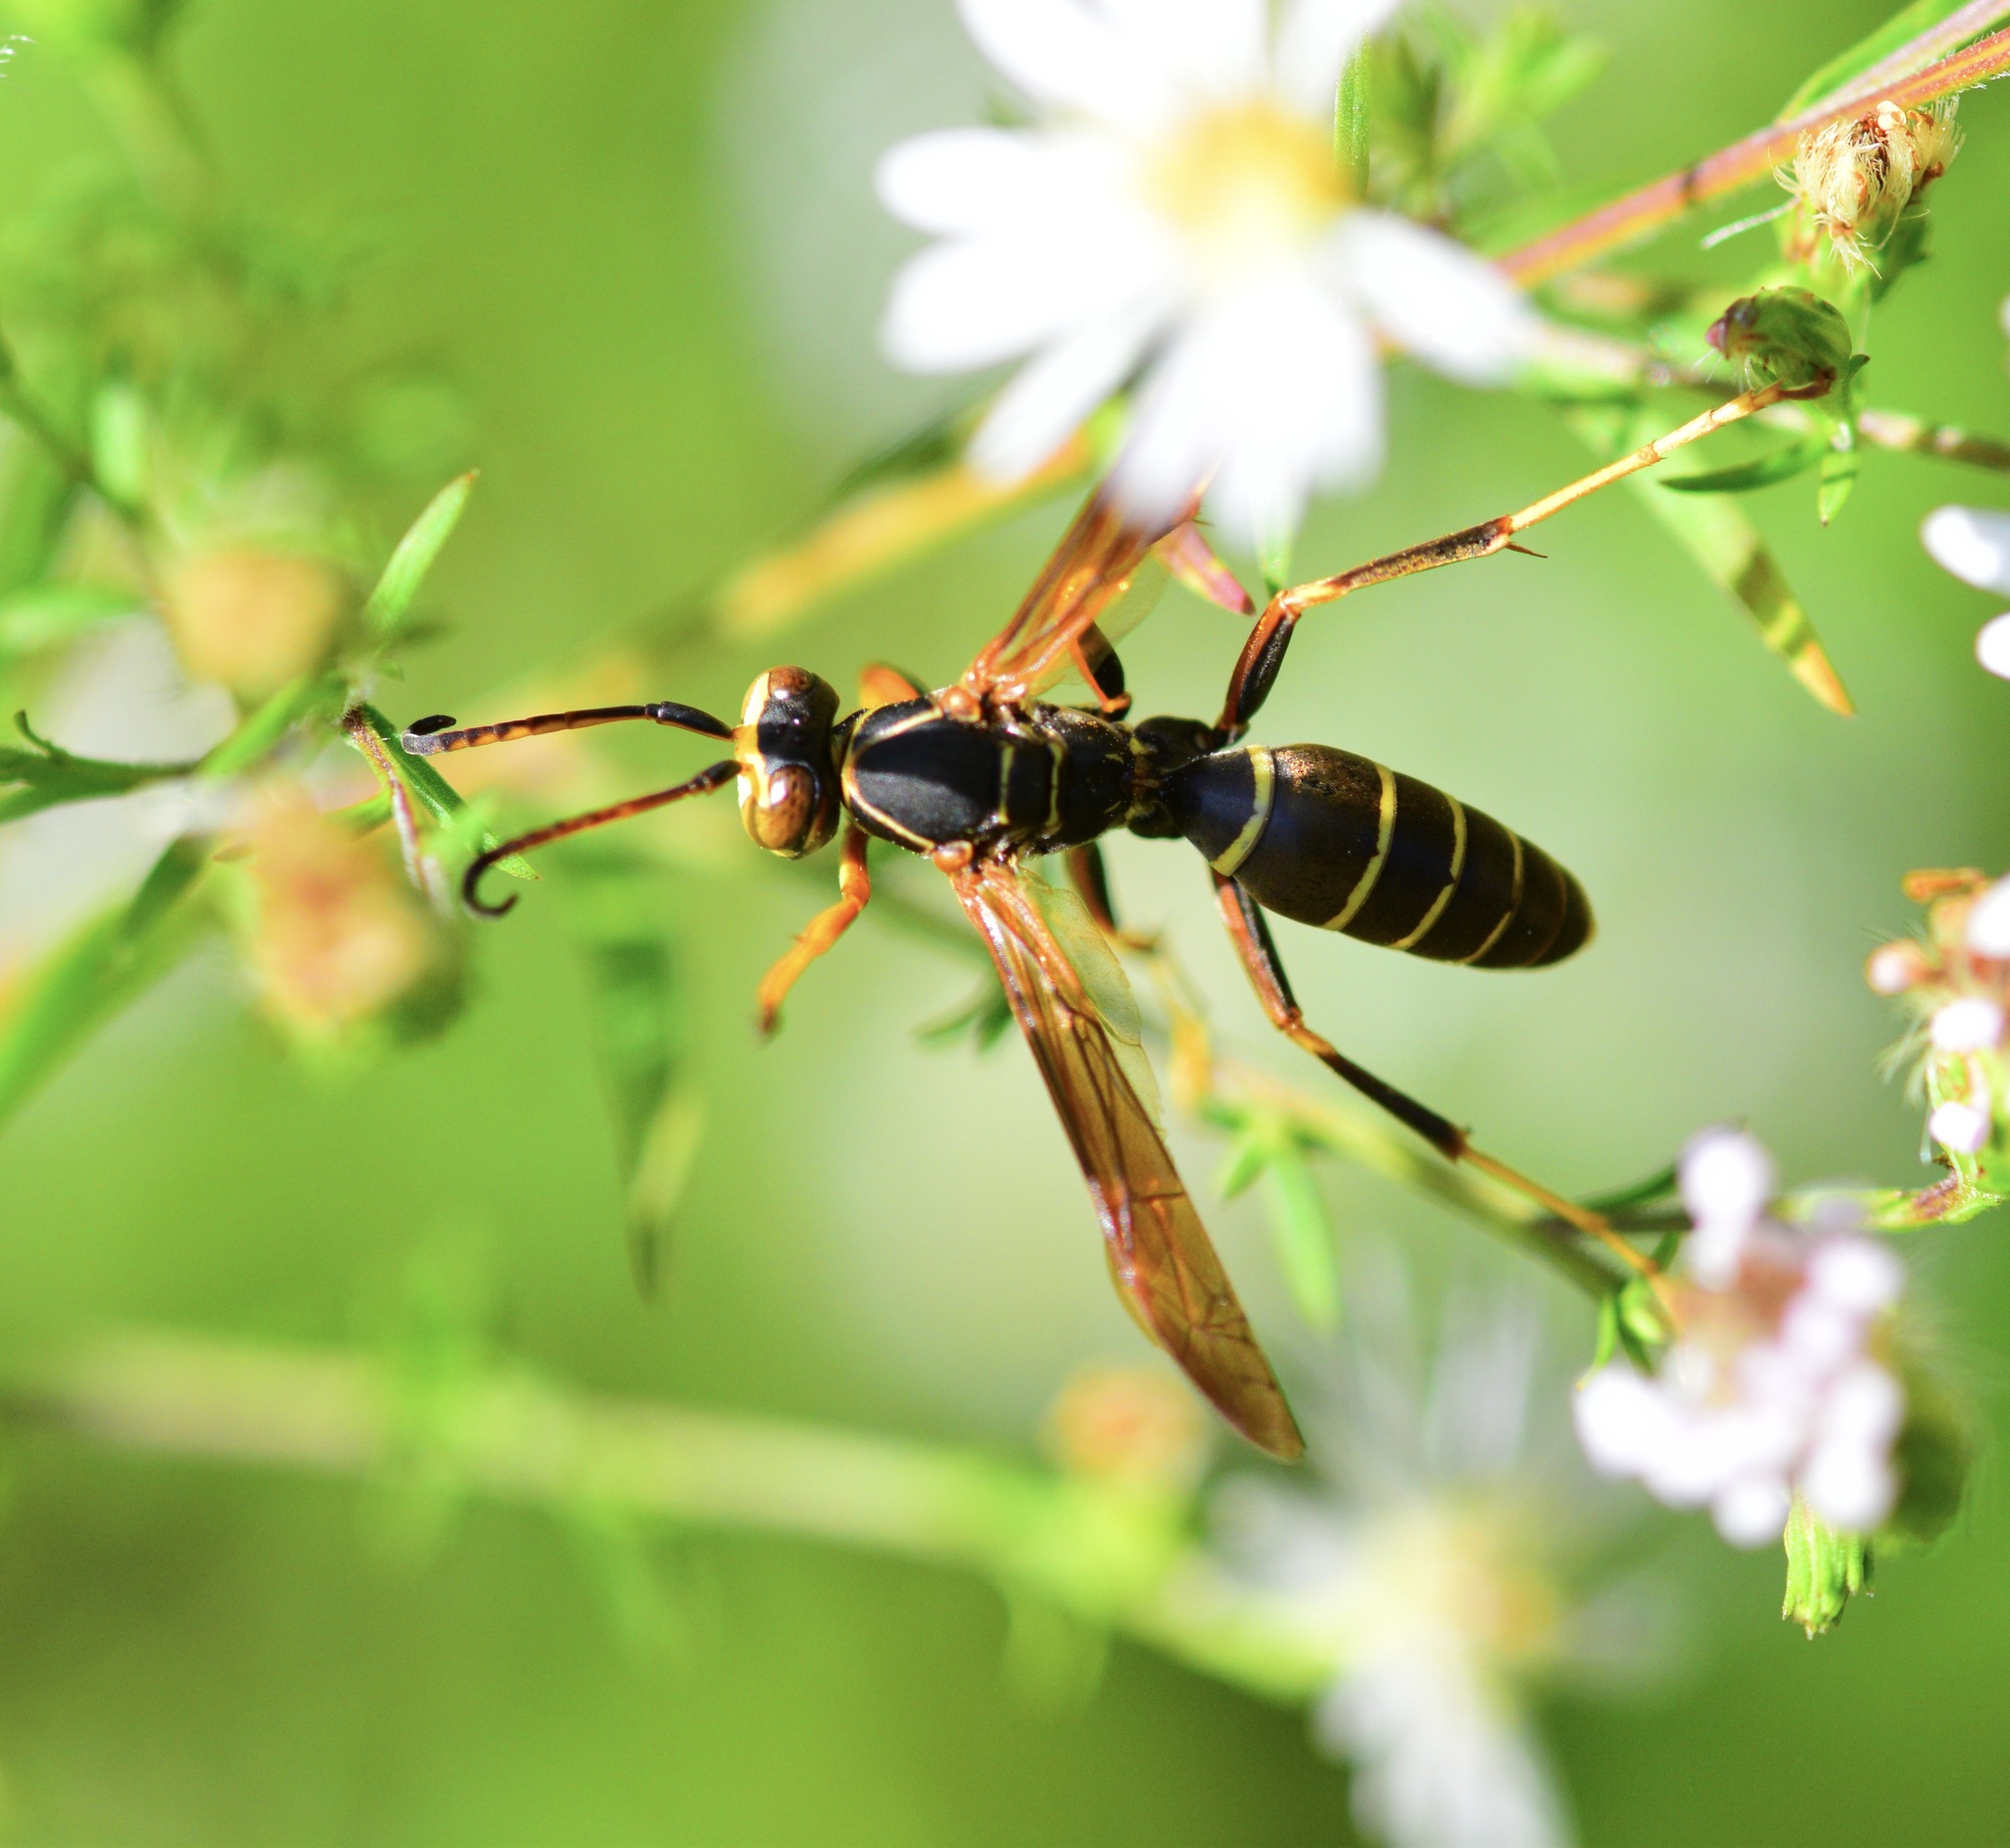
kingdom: Animalia
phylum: Arthropoda
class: Insecta
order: Hymenoptera
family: Eumenidae
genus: Polistes
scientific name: Polistes fuscatus
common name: Dark paper wasp
